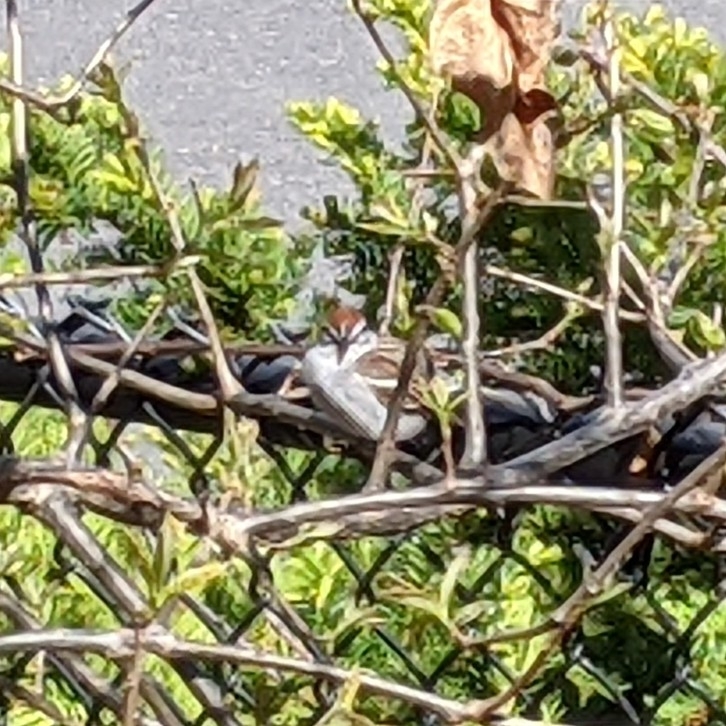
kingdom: Animalia
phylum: Chordata
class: Aves
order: Passeriformes
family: Passerellidae
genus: Spizella
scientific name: Spizella passerina
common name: Chipping sparrow
